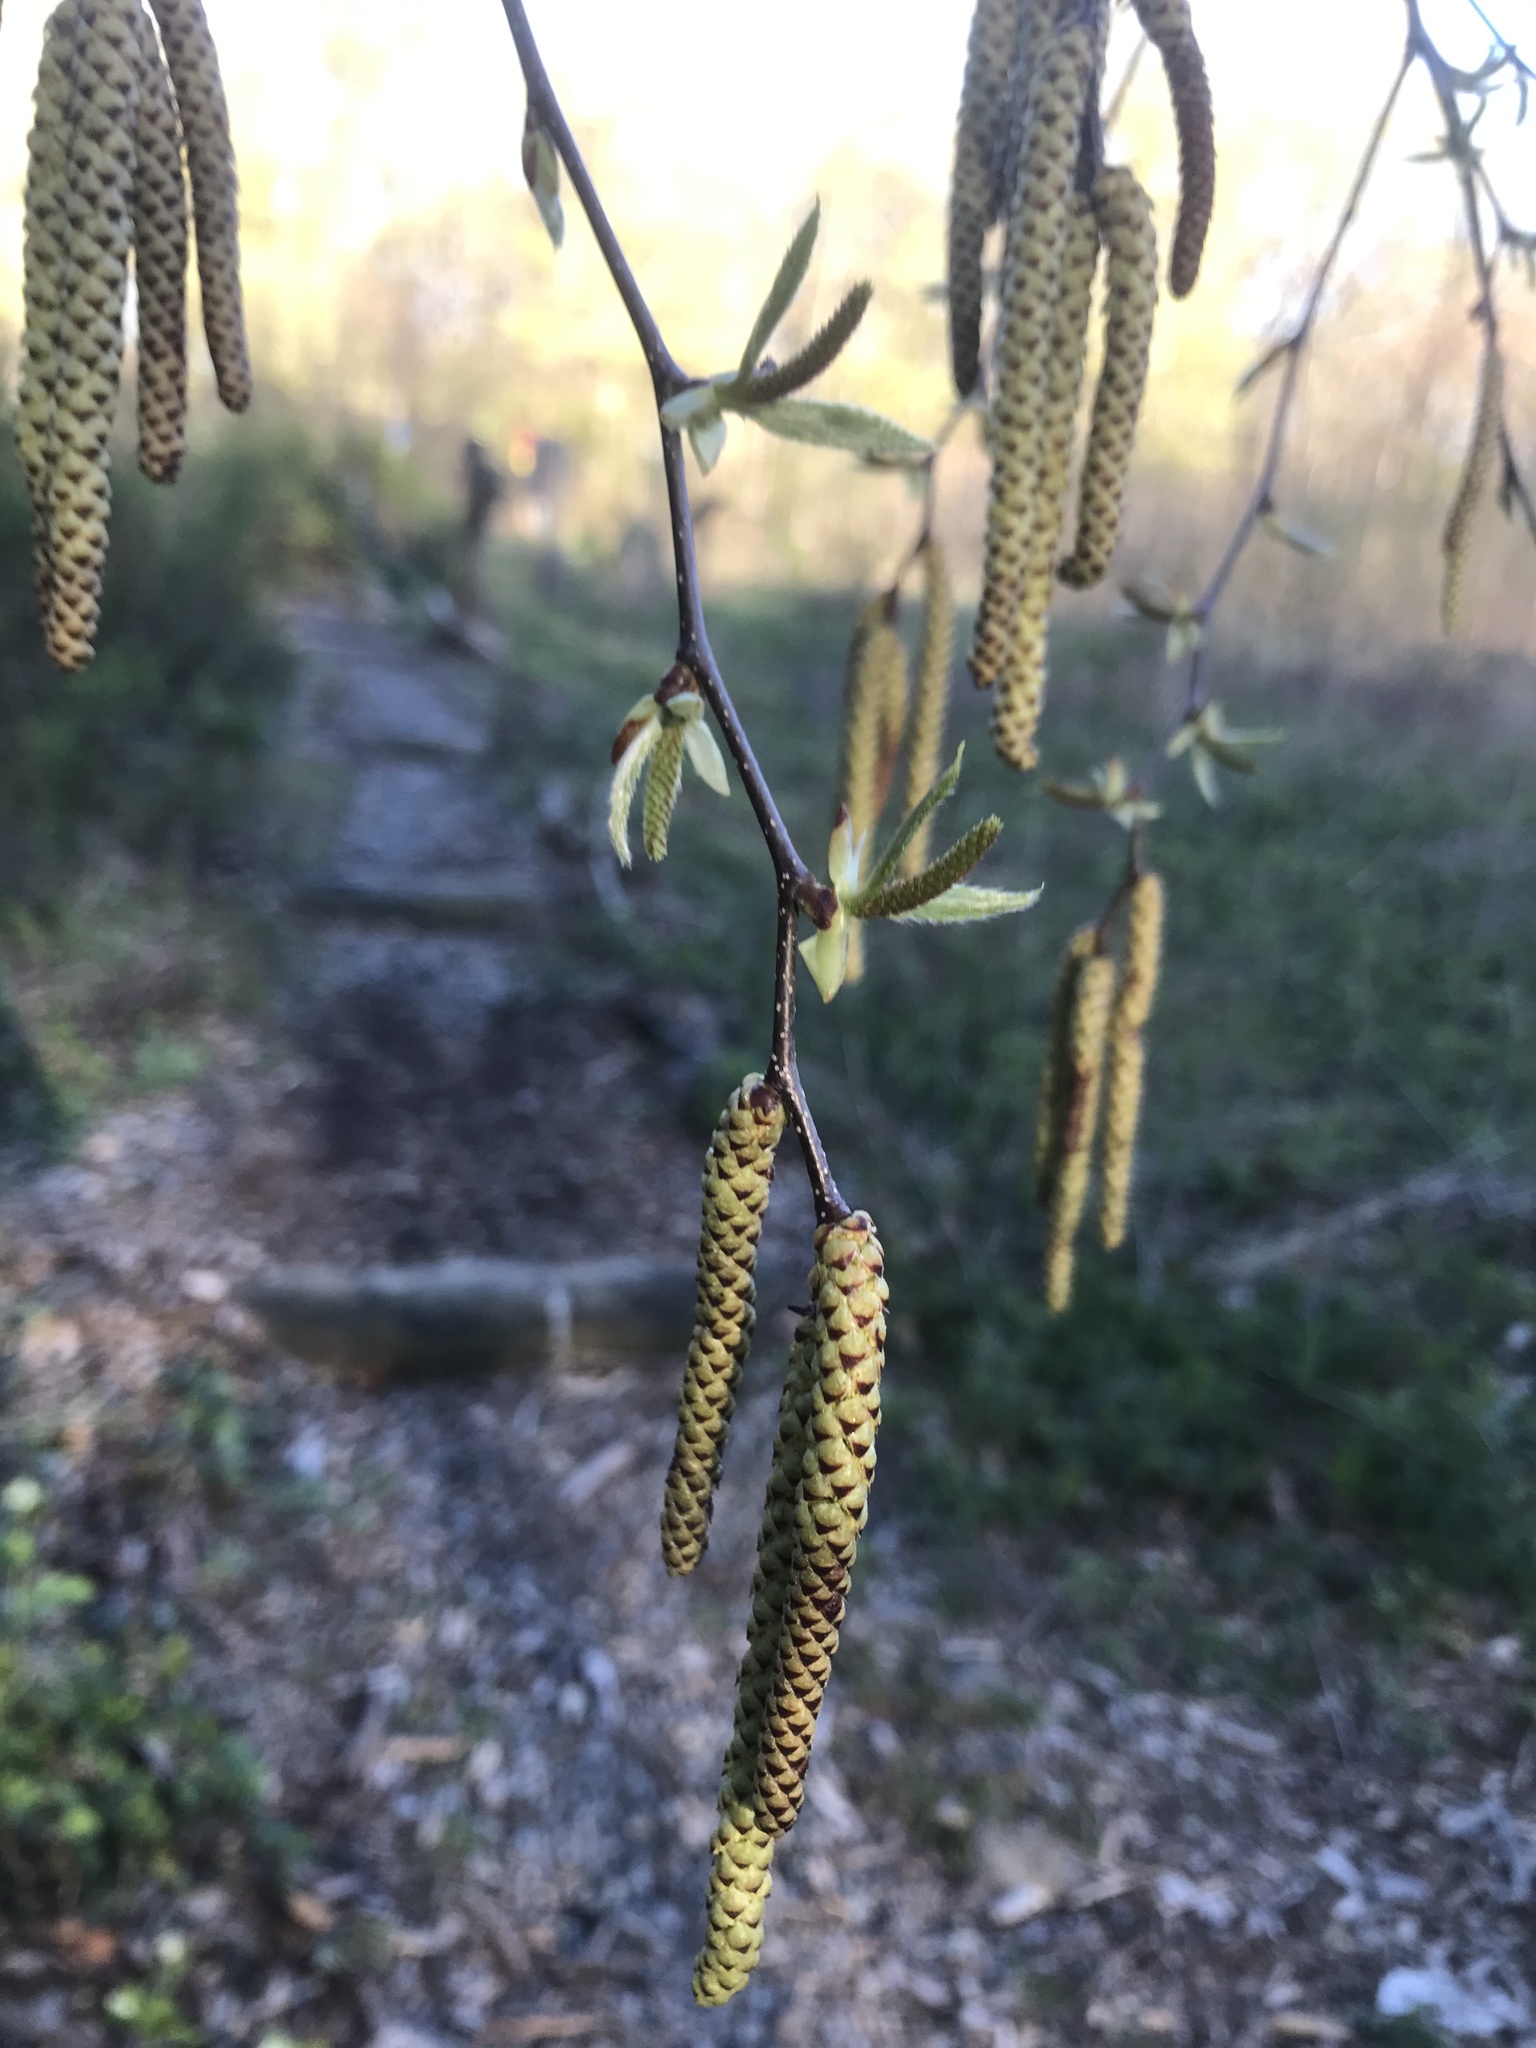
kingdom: Plantae
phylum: Tracheophyta
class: Magnoliopsida
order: Fagales
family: Betulaceae
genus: Betula
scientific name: Betula lenta
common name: Black birch
